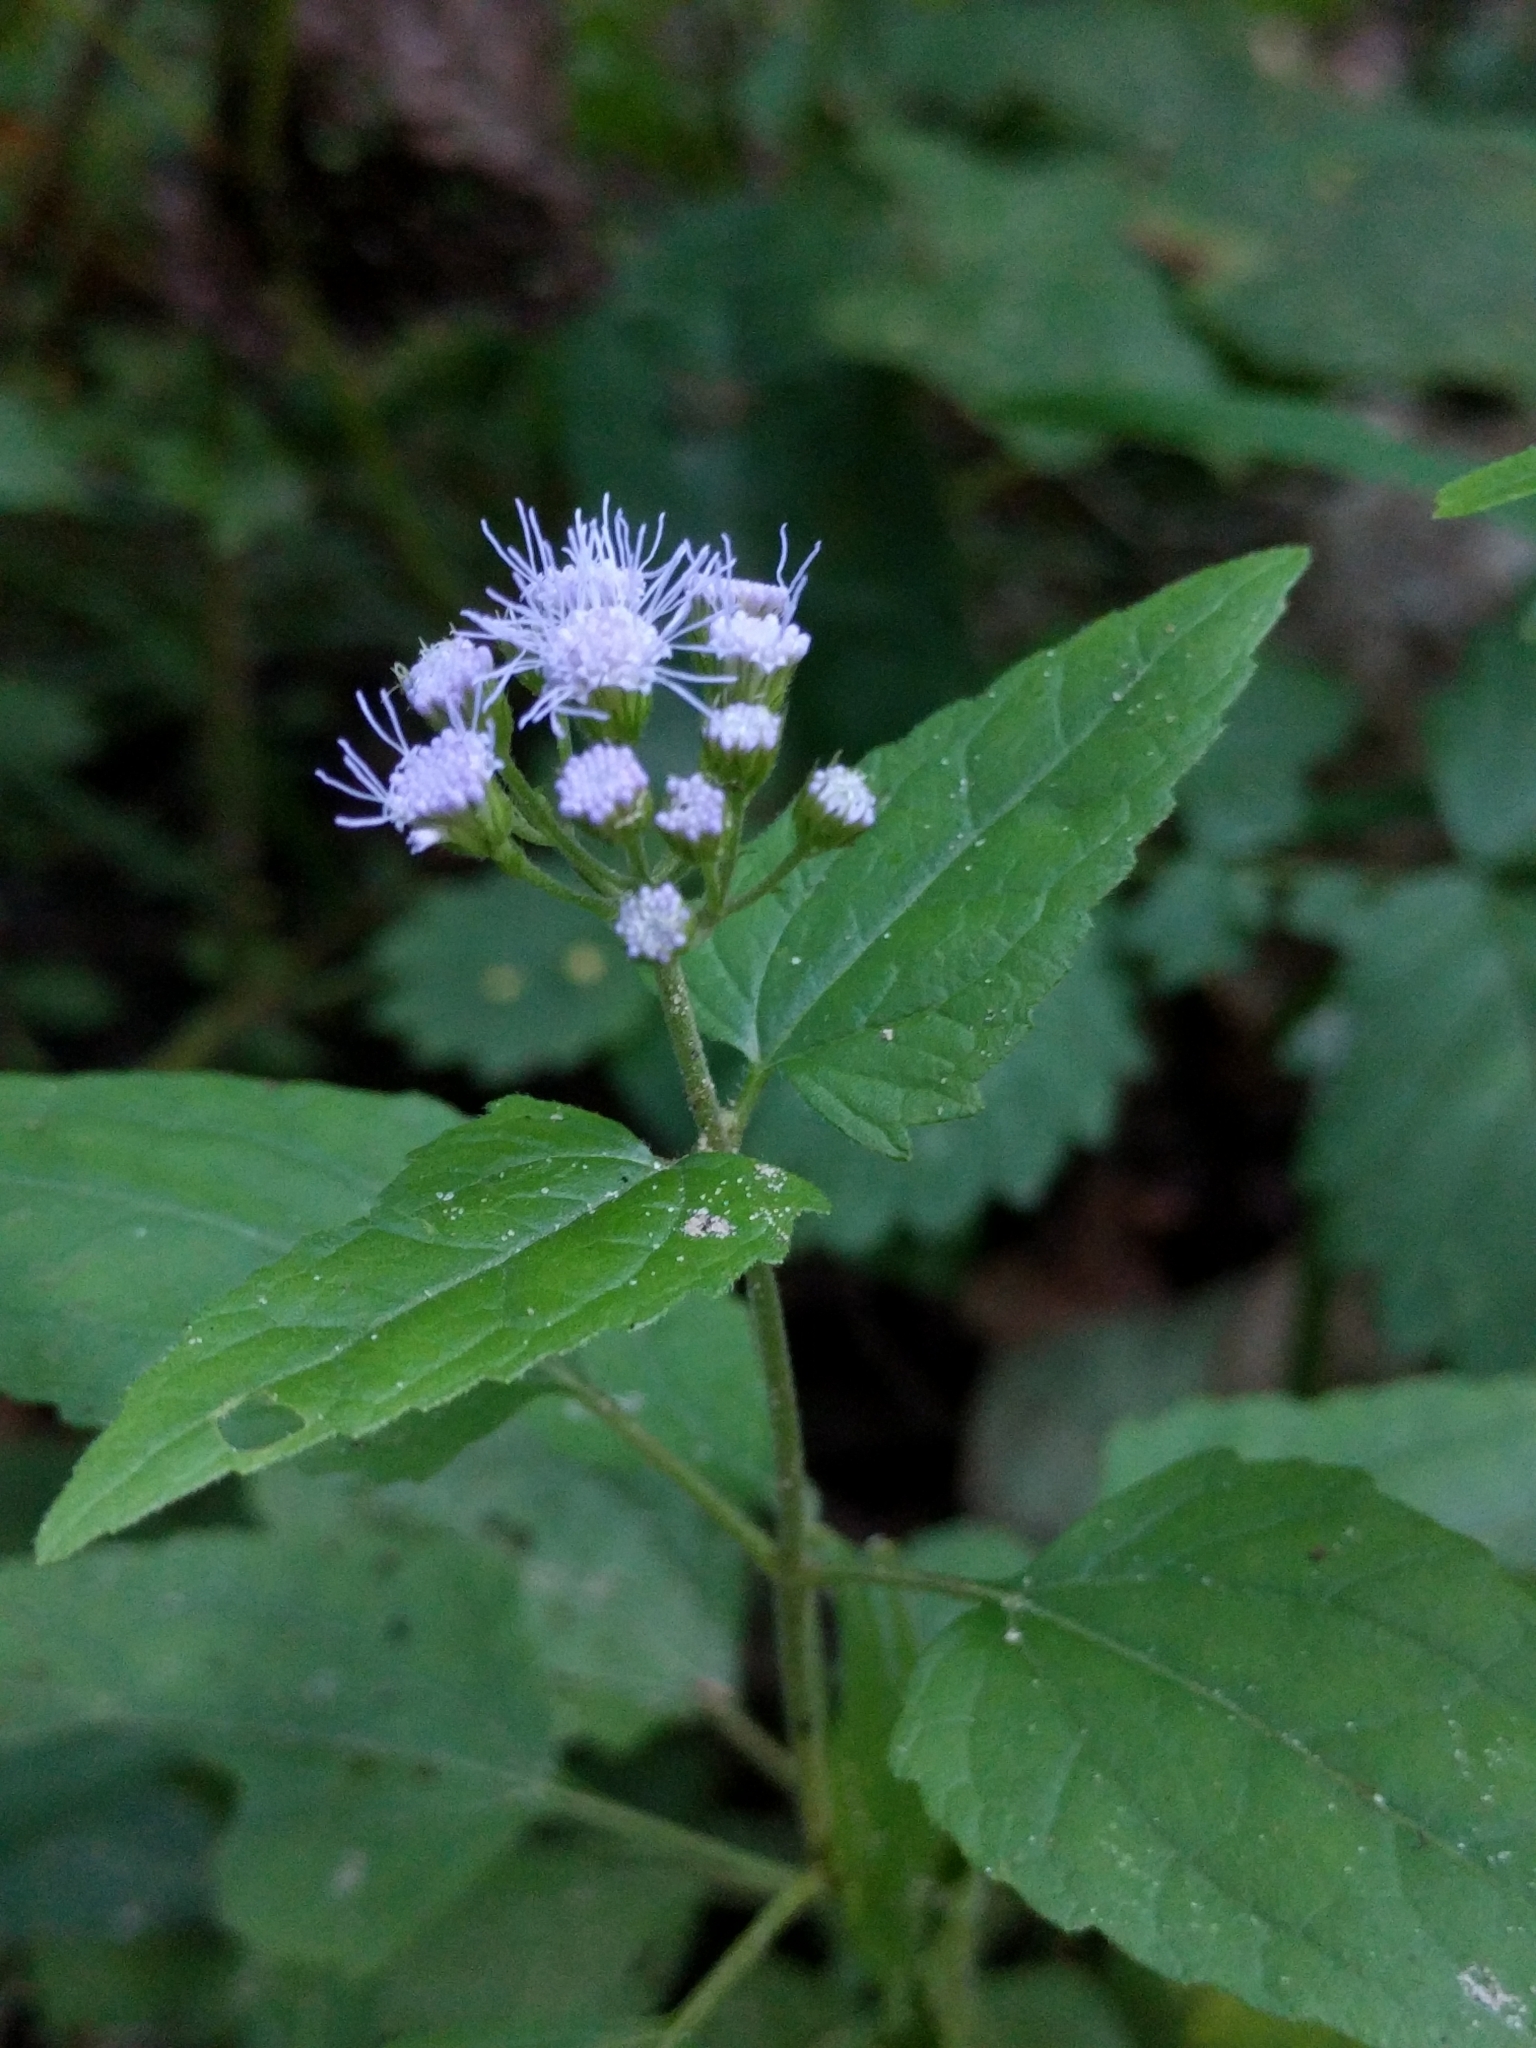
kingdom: Plantae
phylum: Tracheophyta
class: Magnoliopsida
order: Asterales
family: Asteraceae
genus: Conoclinium
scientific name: Conoclinium coelestinum
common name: Blue mistflower
